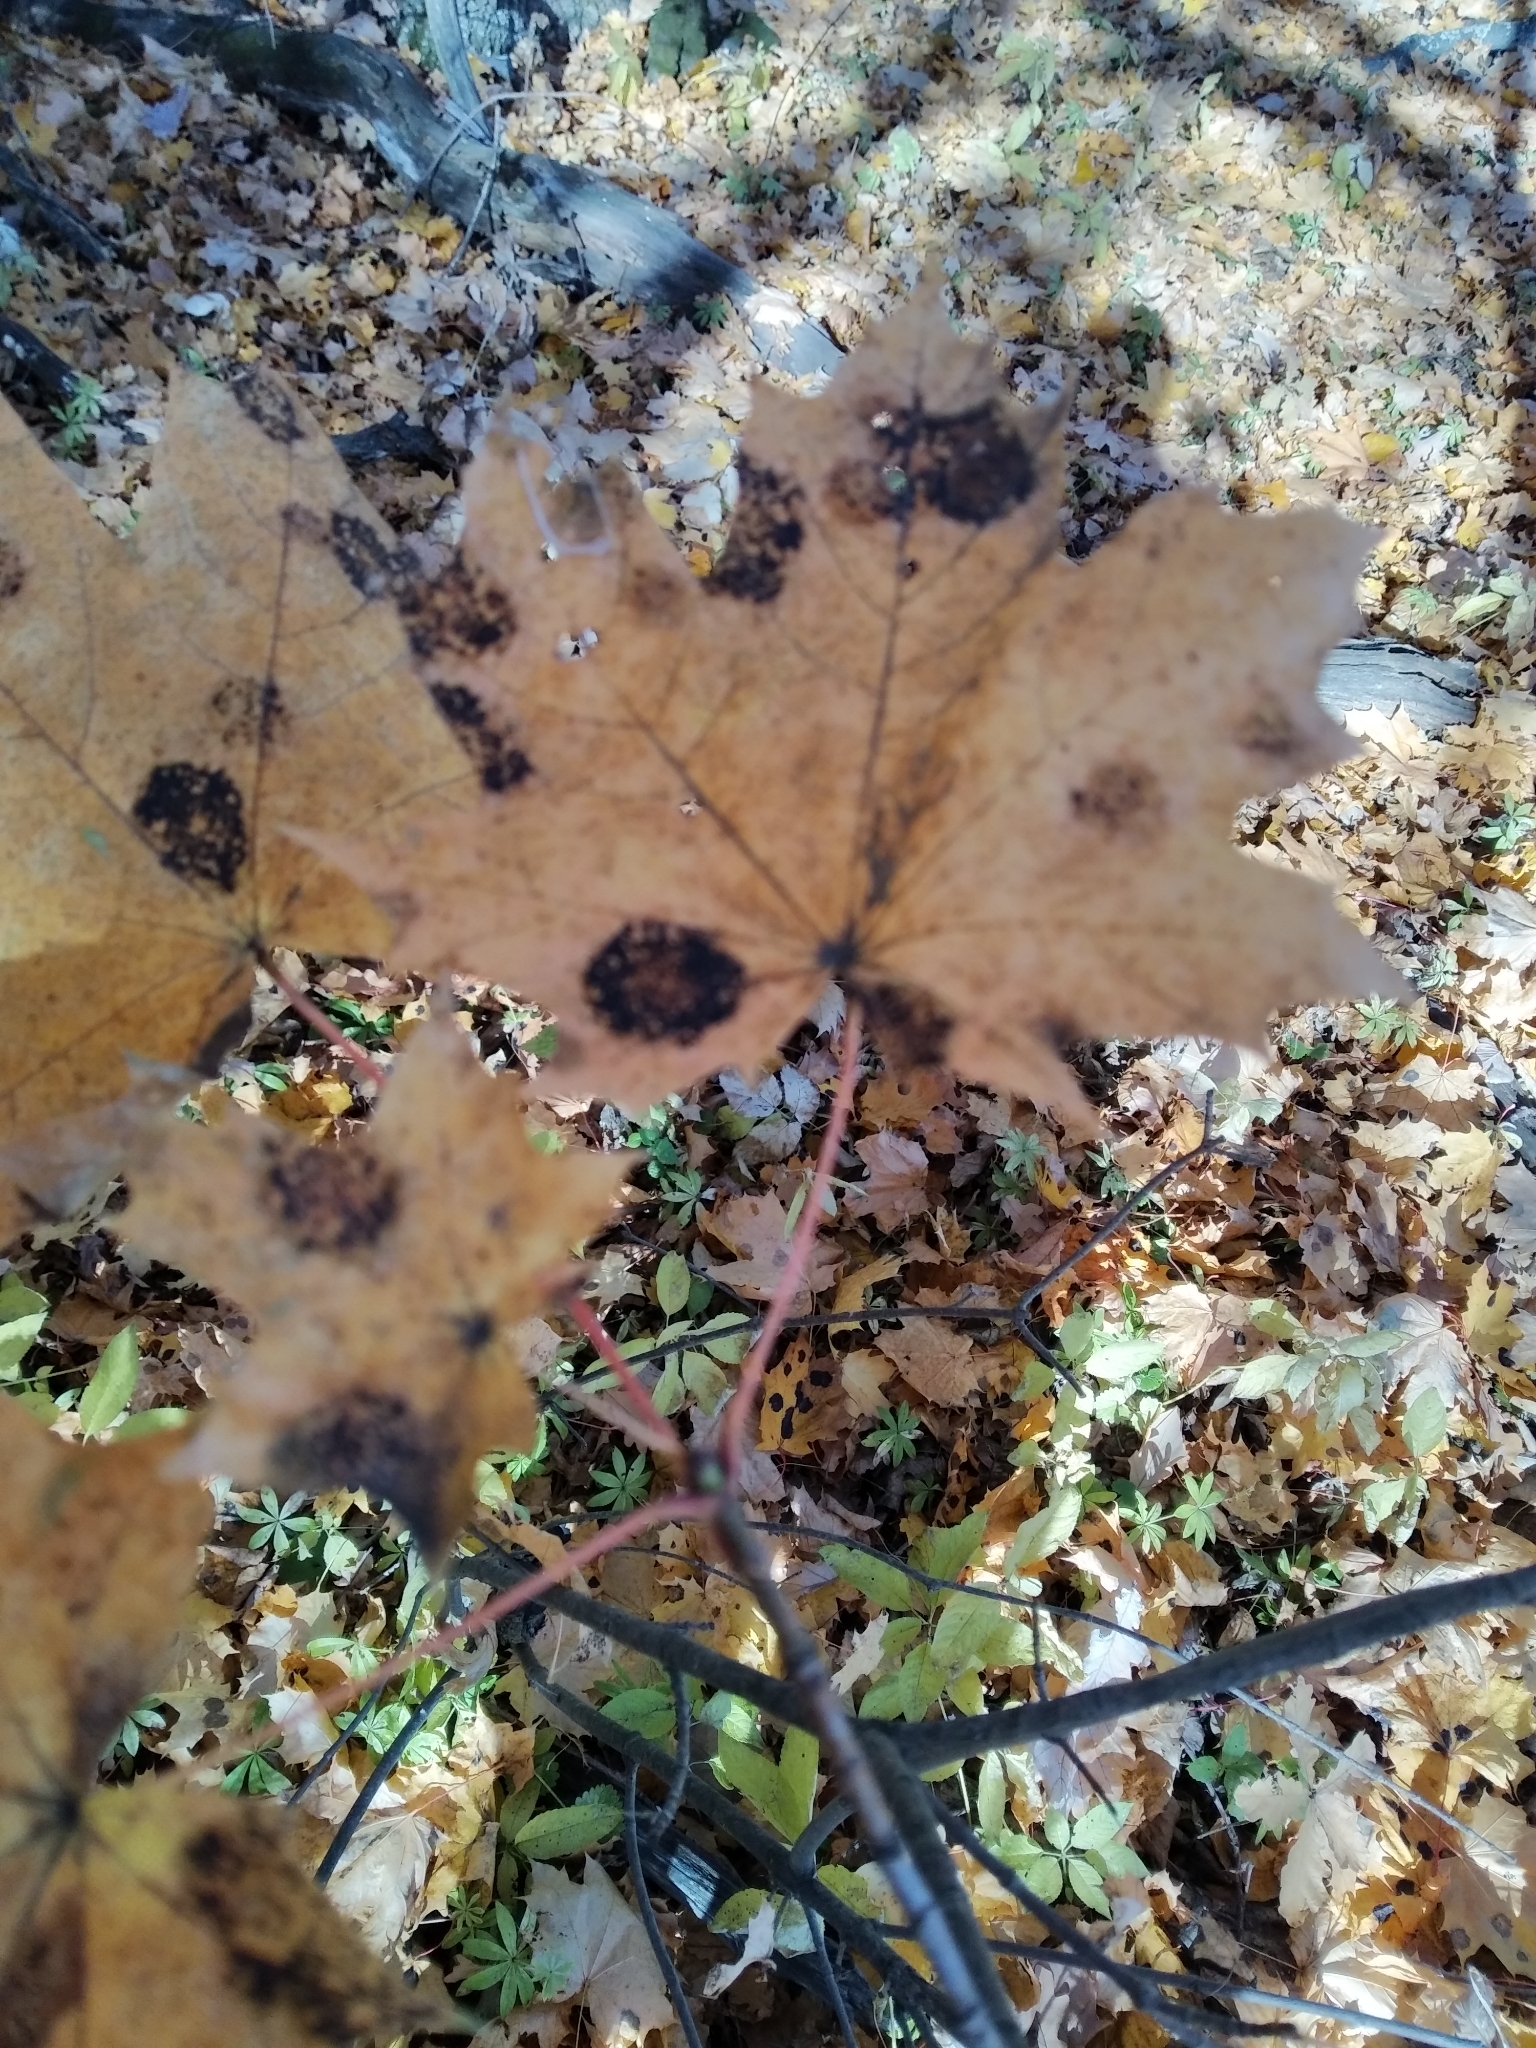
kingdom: Fungi
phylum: Ascomycota
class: Leotiomycetes
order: Rhytismatales
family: Rhytismataceae
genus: Rhytisma
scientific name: Rhytisma acerinum
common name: European tar spot
